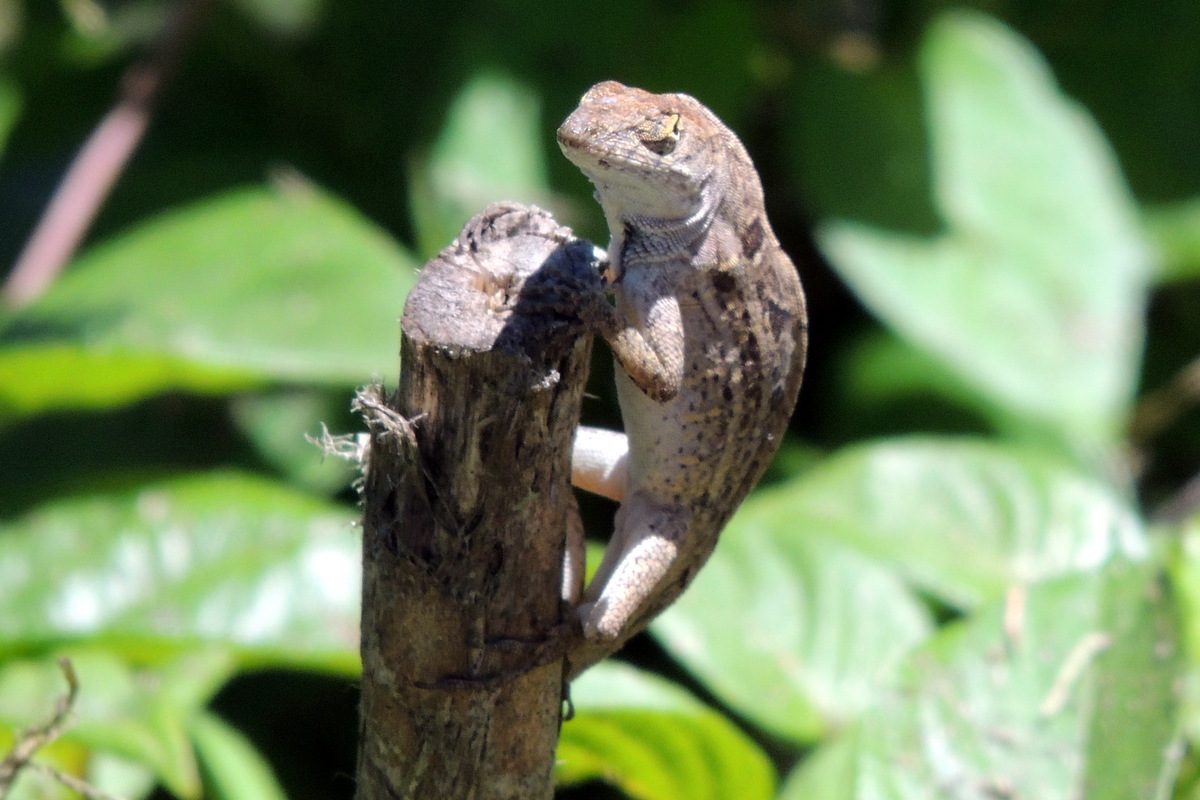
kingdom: Animalia
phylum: Chordata
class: Squamata
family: Dactyloidae
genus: Anolis
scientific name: Anolis sagrei
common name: Brown anole
